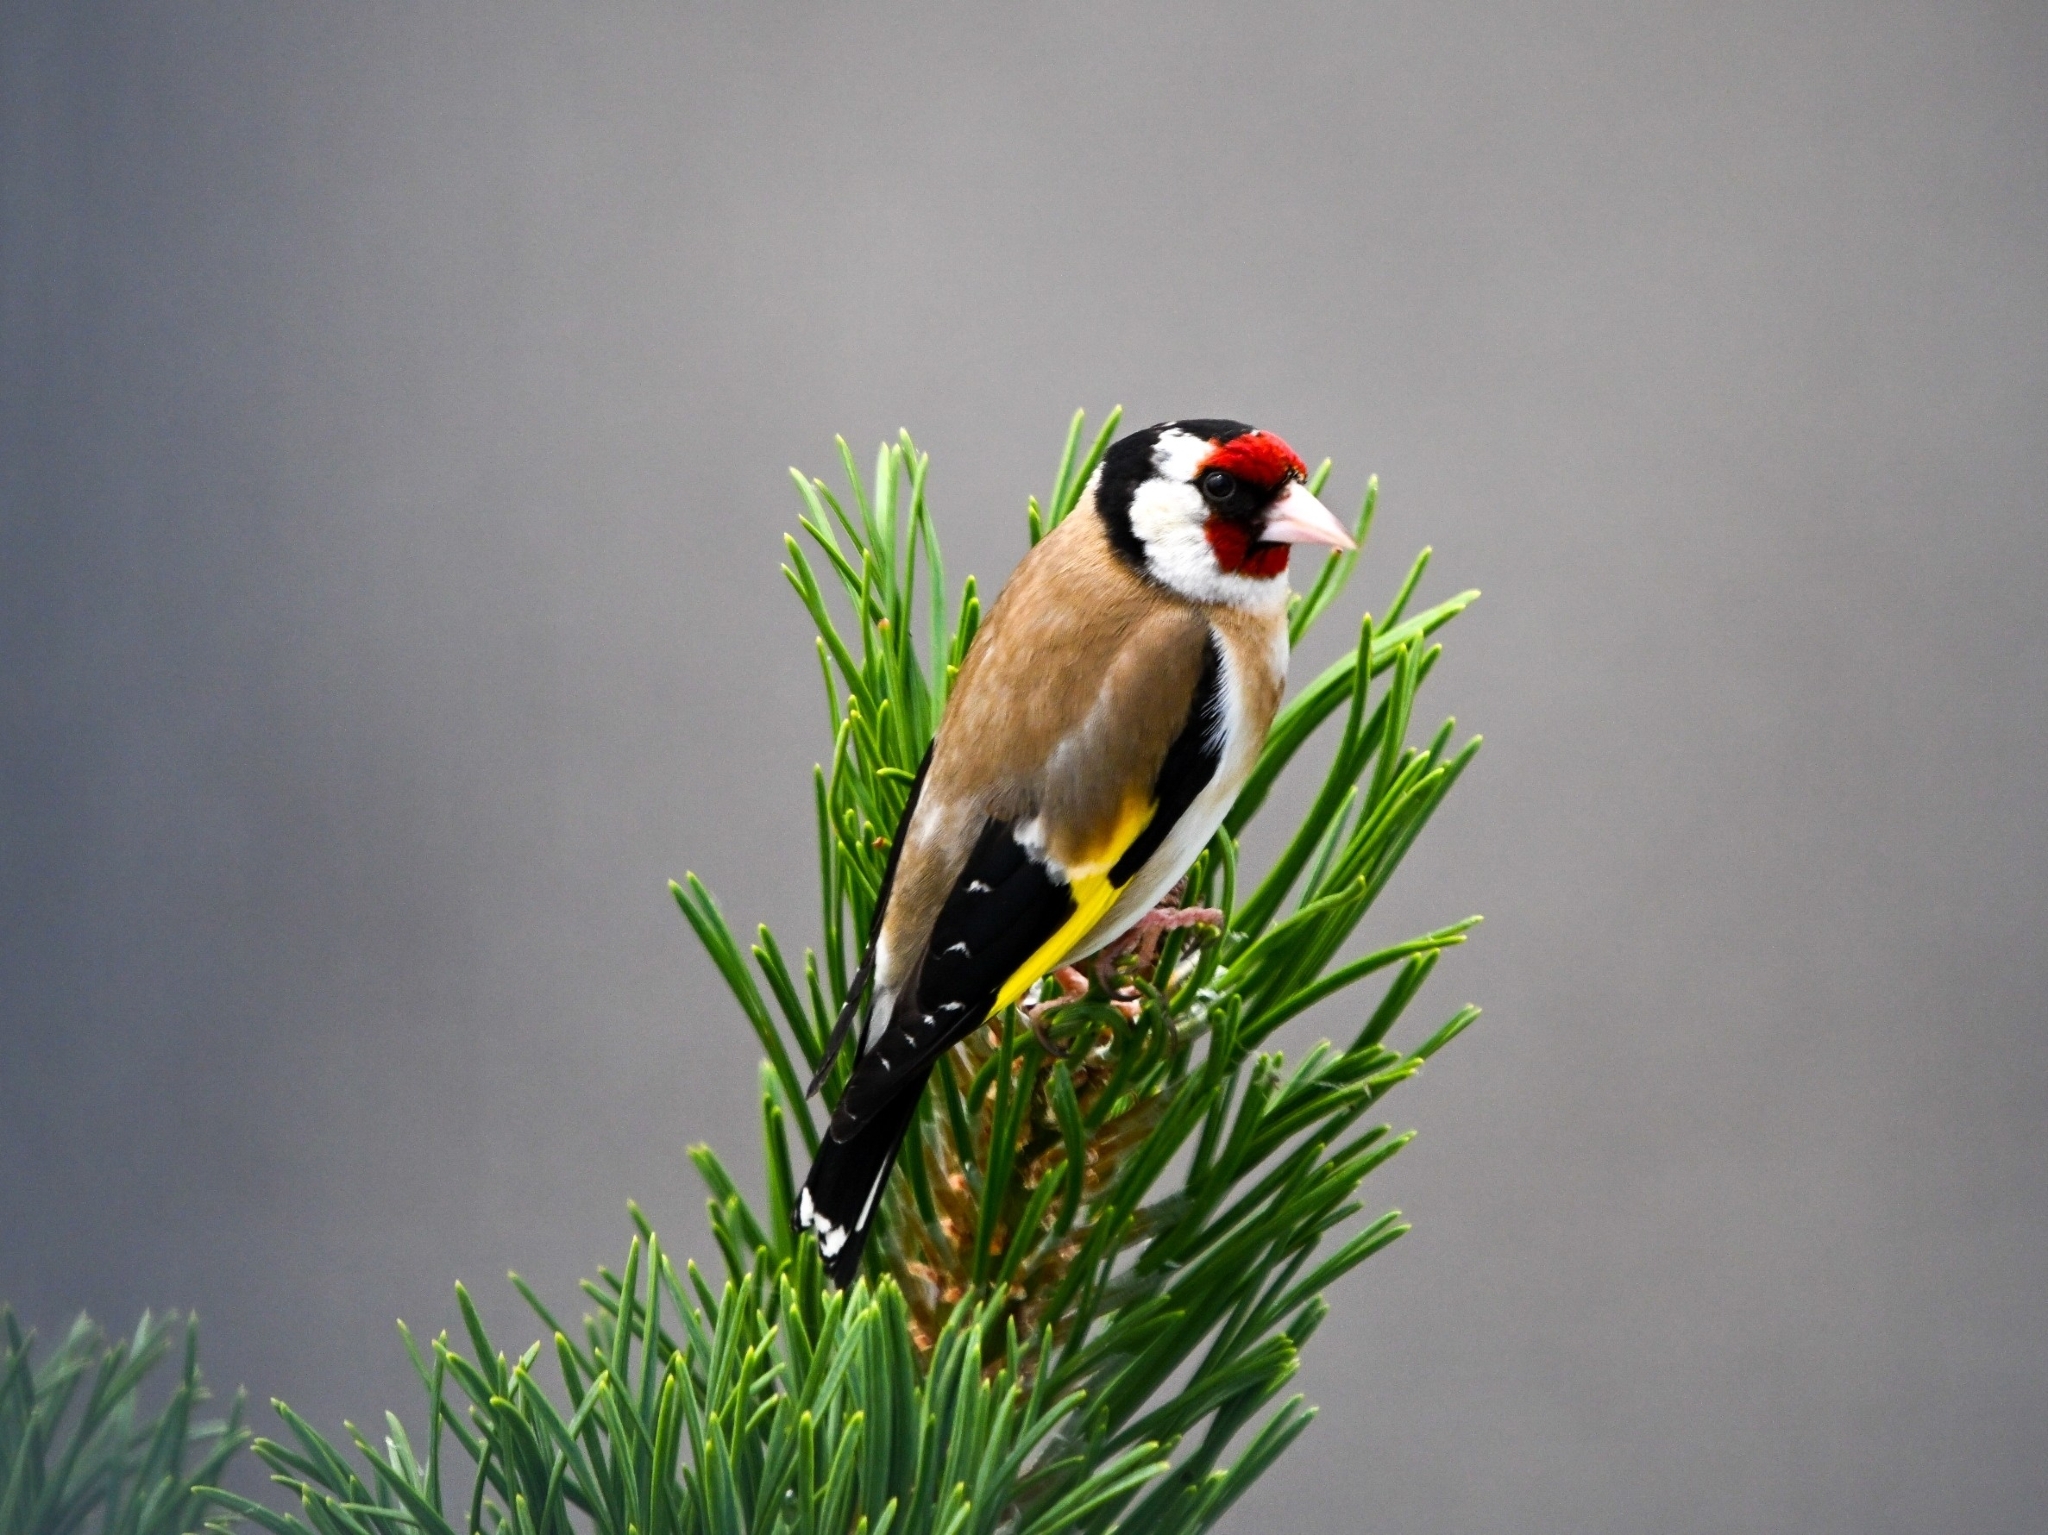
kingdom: Animalia
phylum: Chordata
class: Aves
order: Passeriformes
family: Fringillidae
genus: Carduelis
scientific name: Carduelis carduelis
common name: European goldfinch
